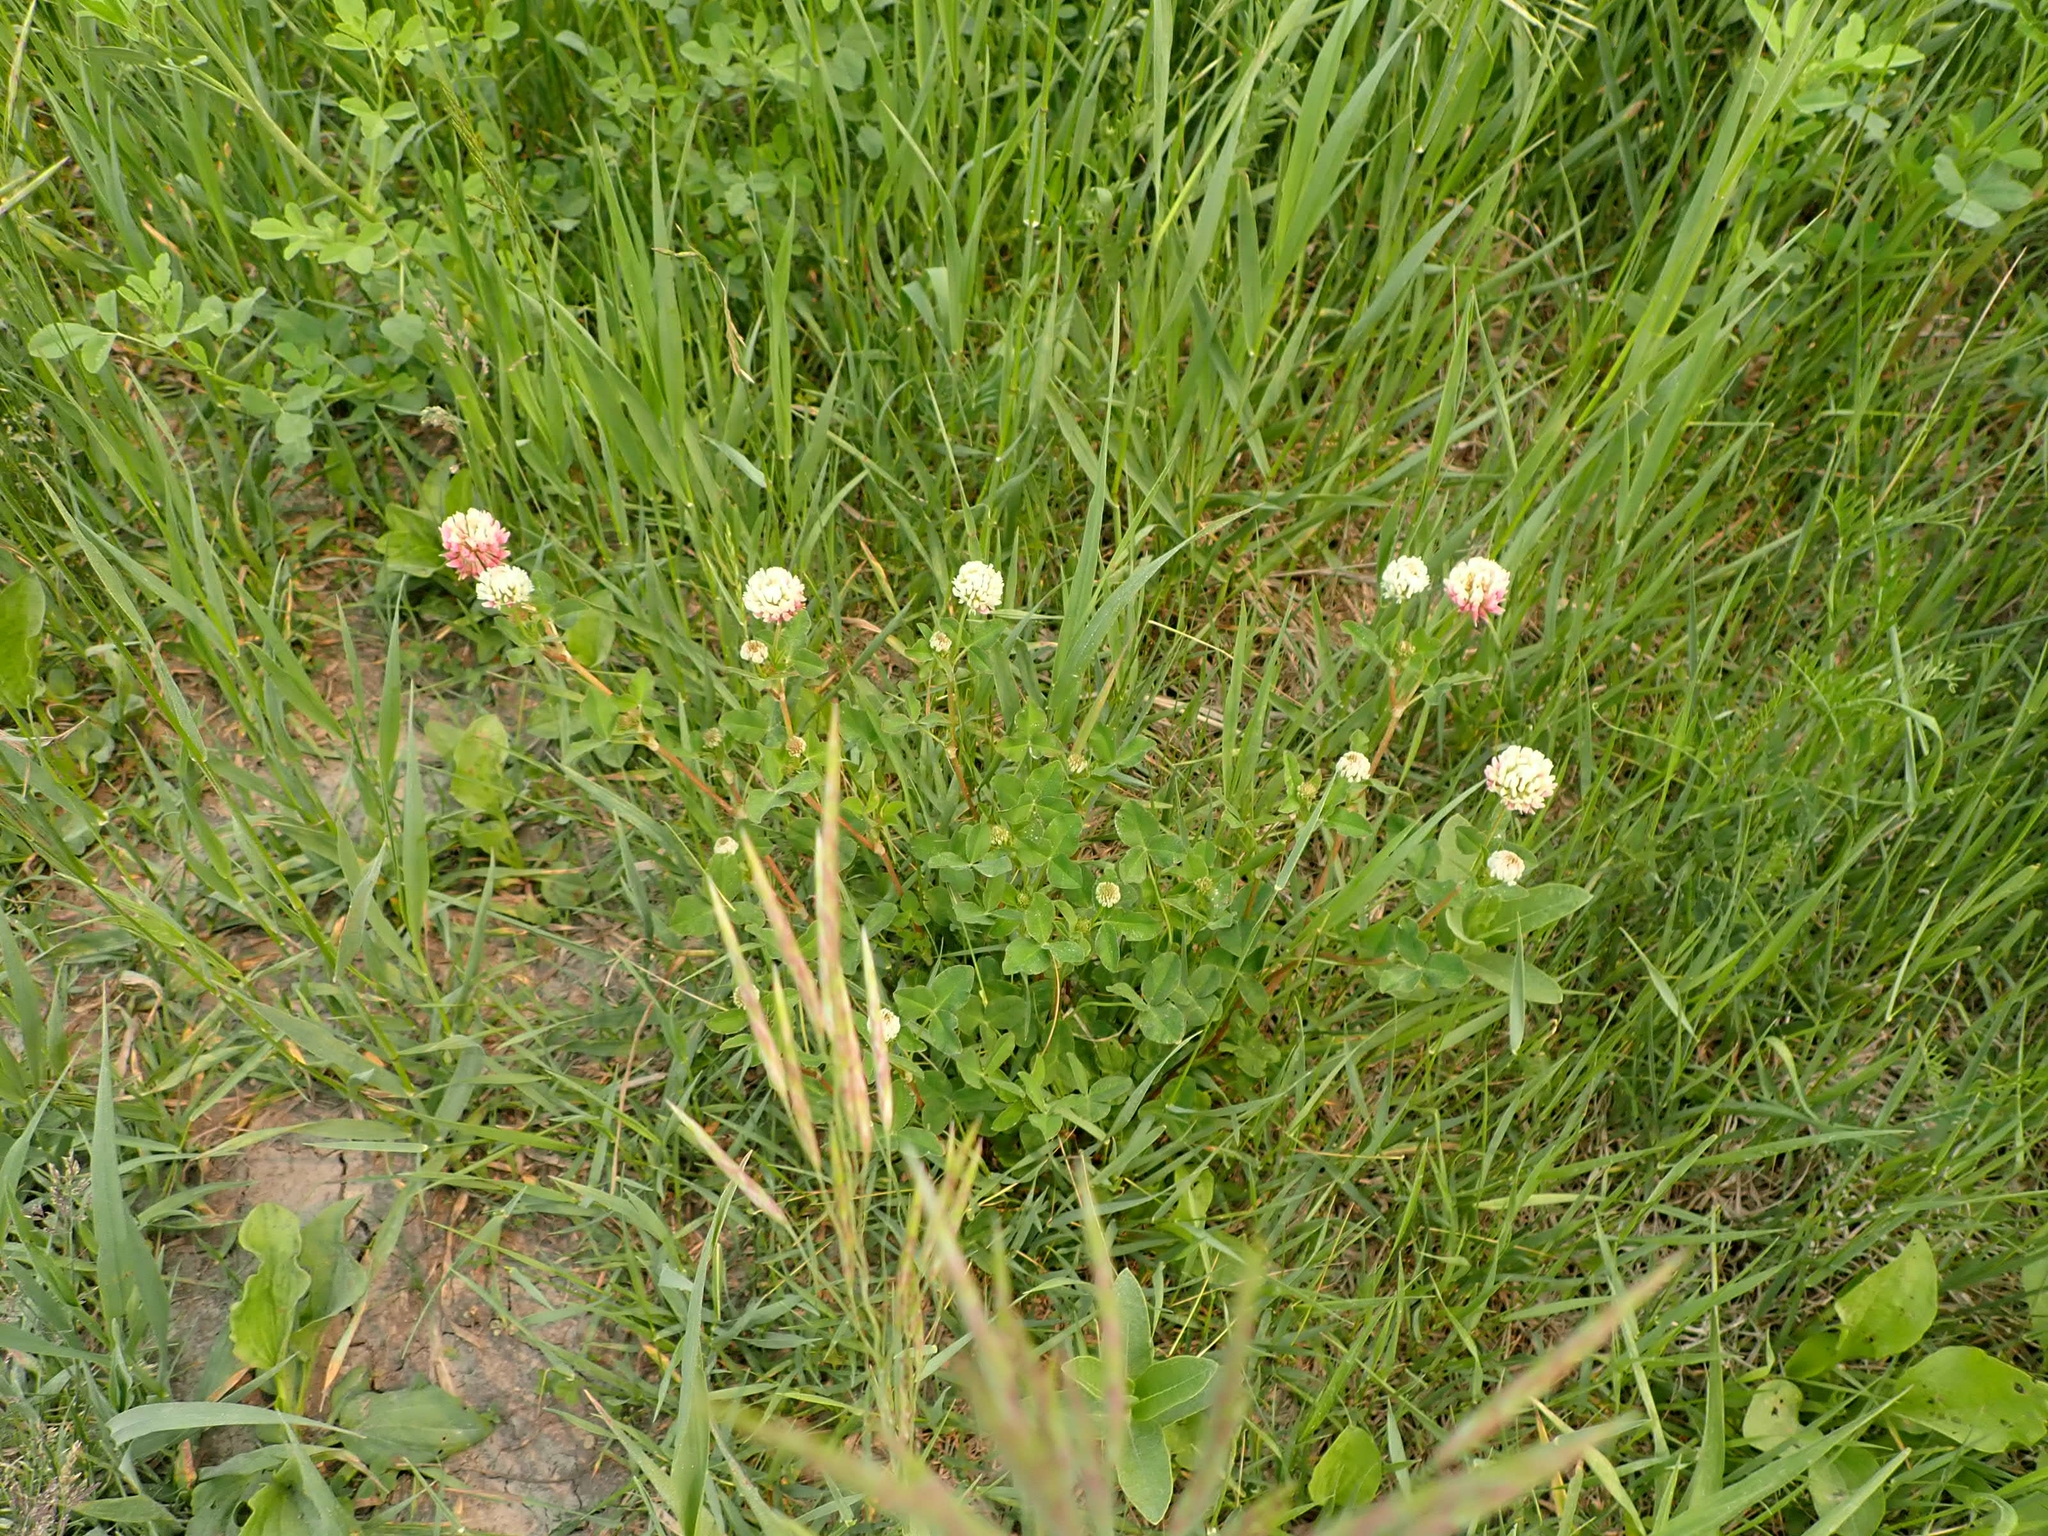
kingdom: Plantae
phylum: Tracheophyta
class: Magnoliopsida
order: Fabales
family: Fabaceae
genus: Trifolium
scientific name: Trifolium hybridum
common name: Alsike clover
